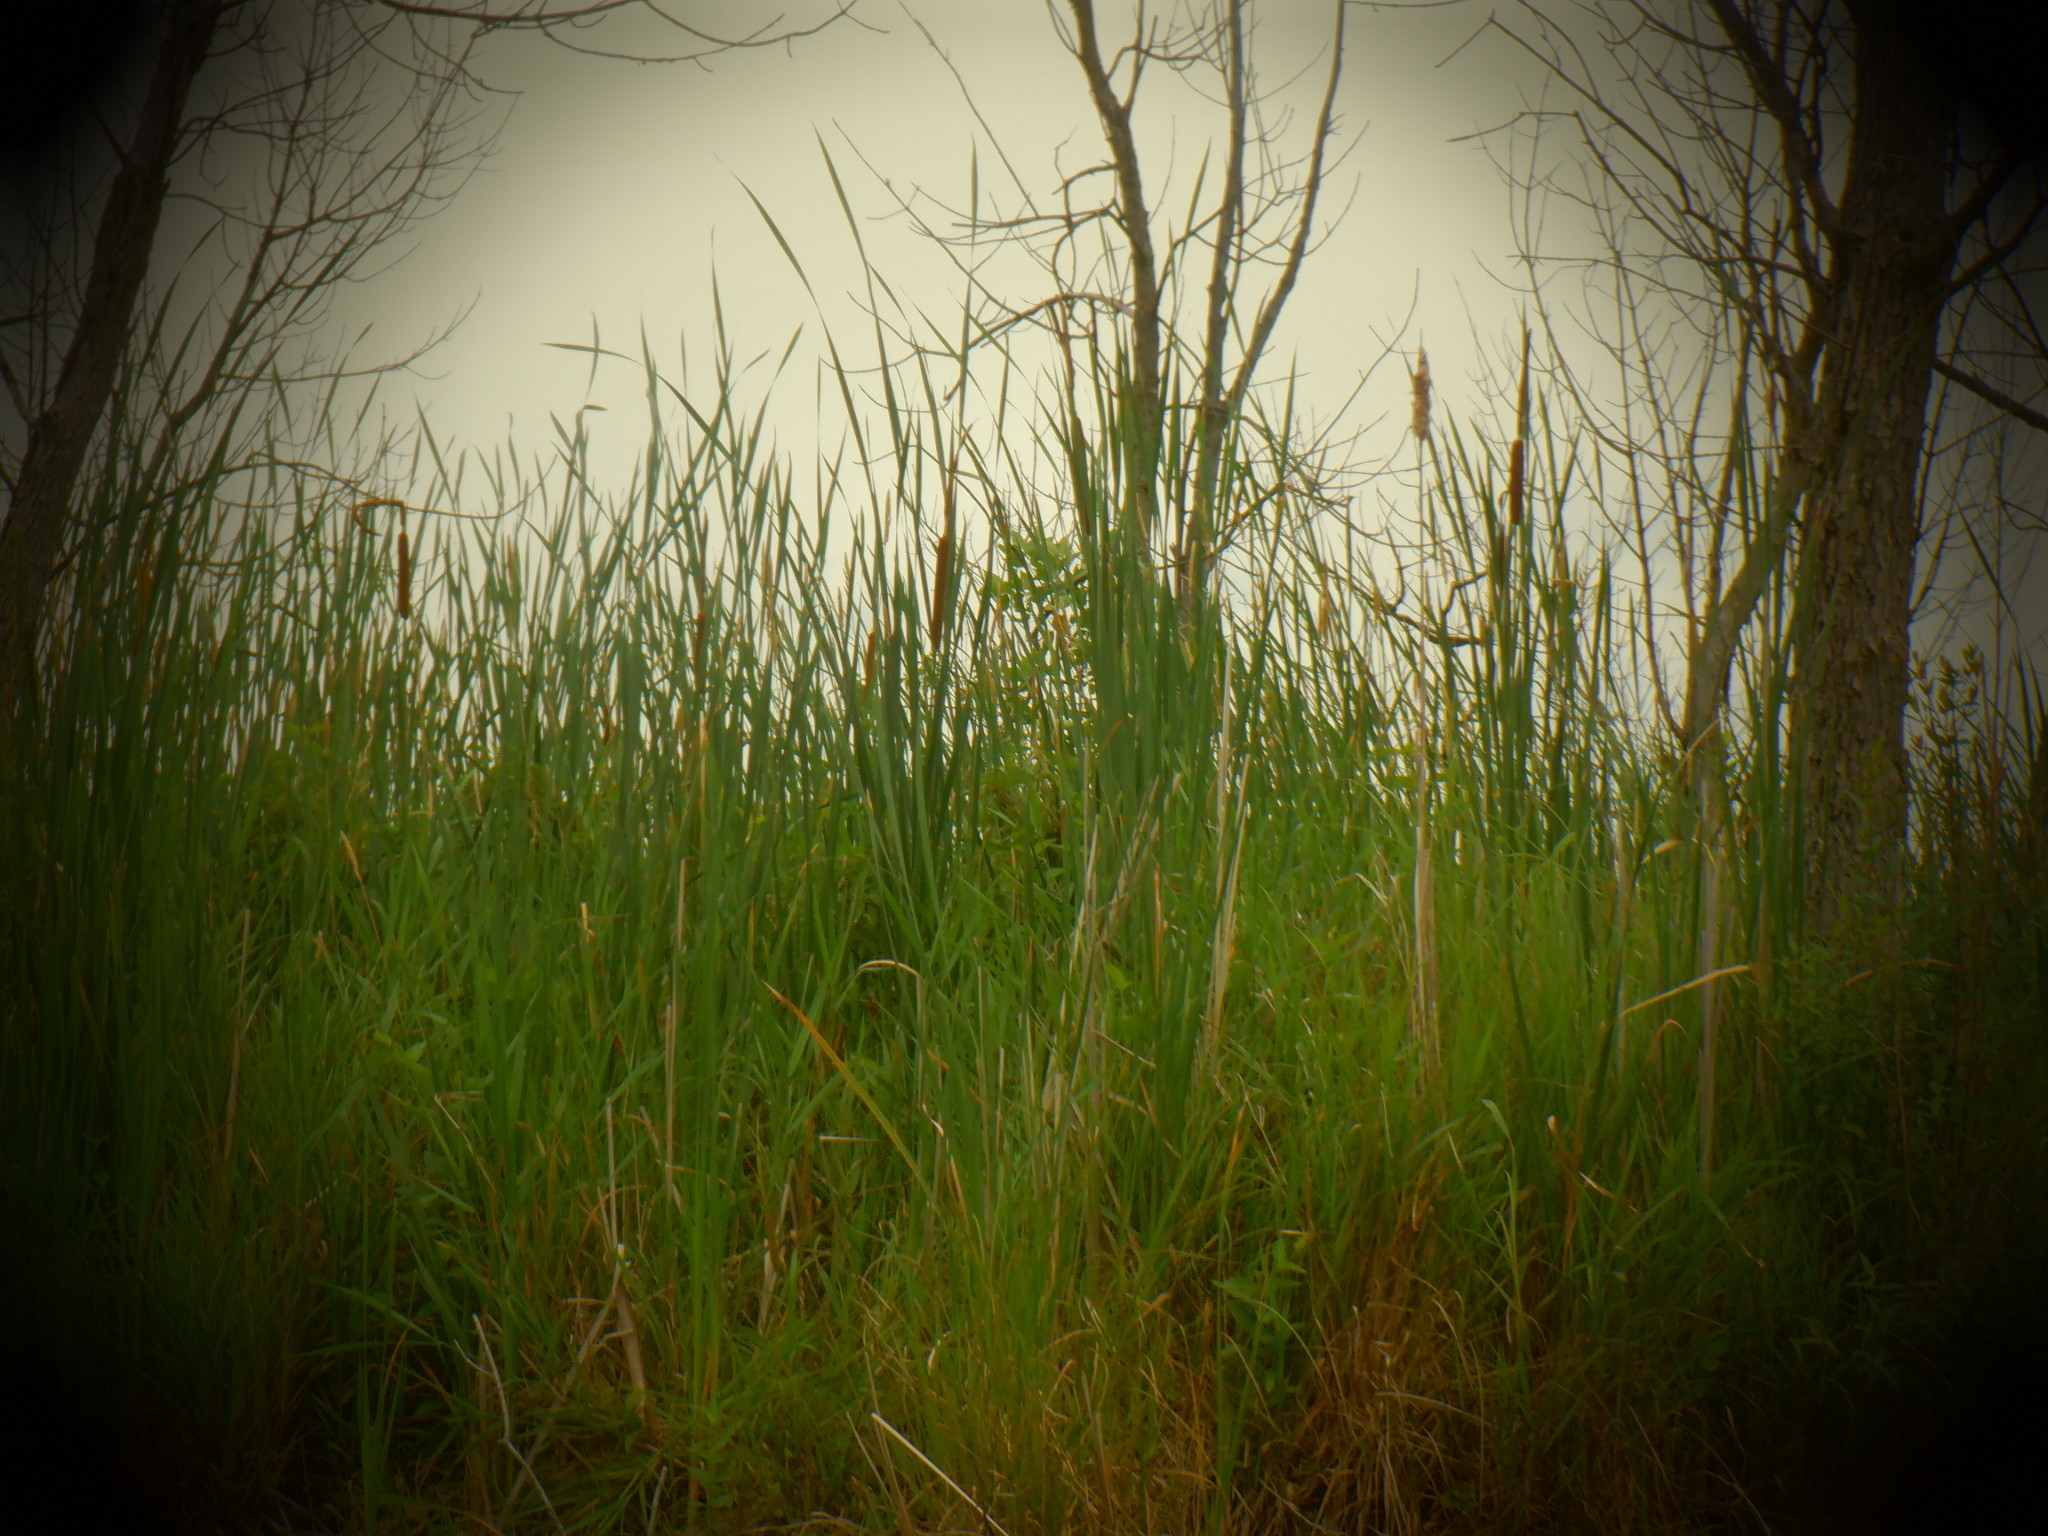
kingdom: Plantae
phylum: Tracheophyta
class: Liliopsida
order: Poales
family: Typhaceae
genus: Typha
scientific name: Typha angustifolia
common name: Lesser bulrush
